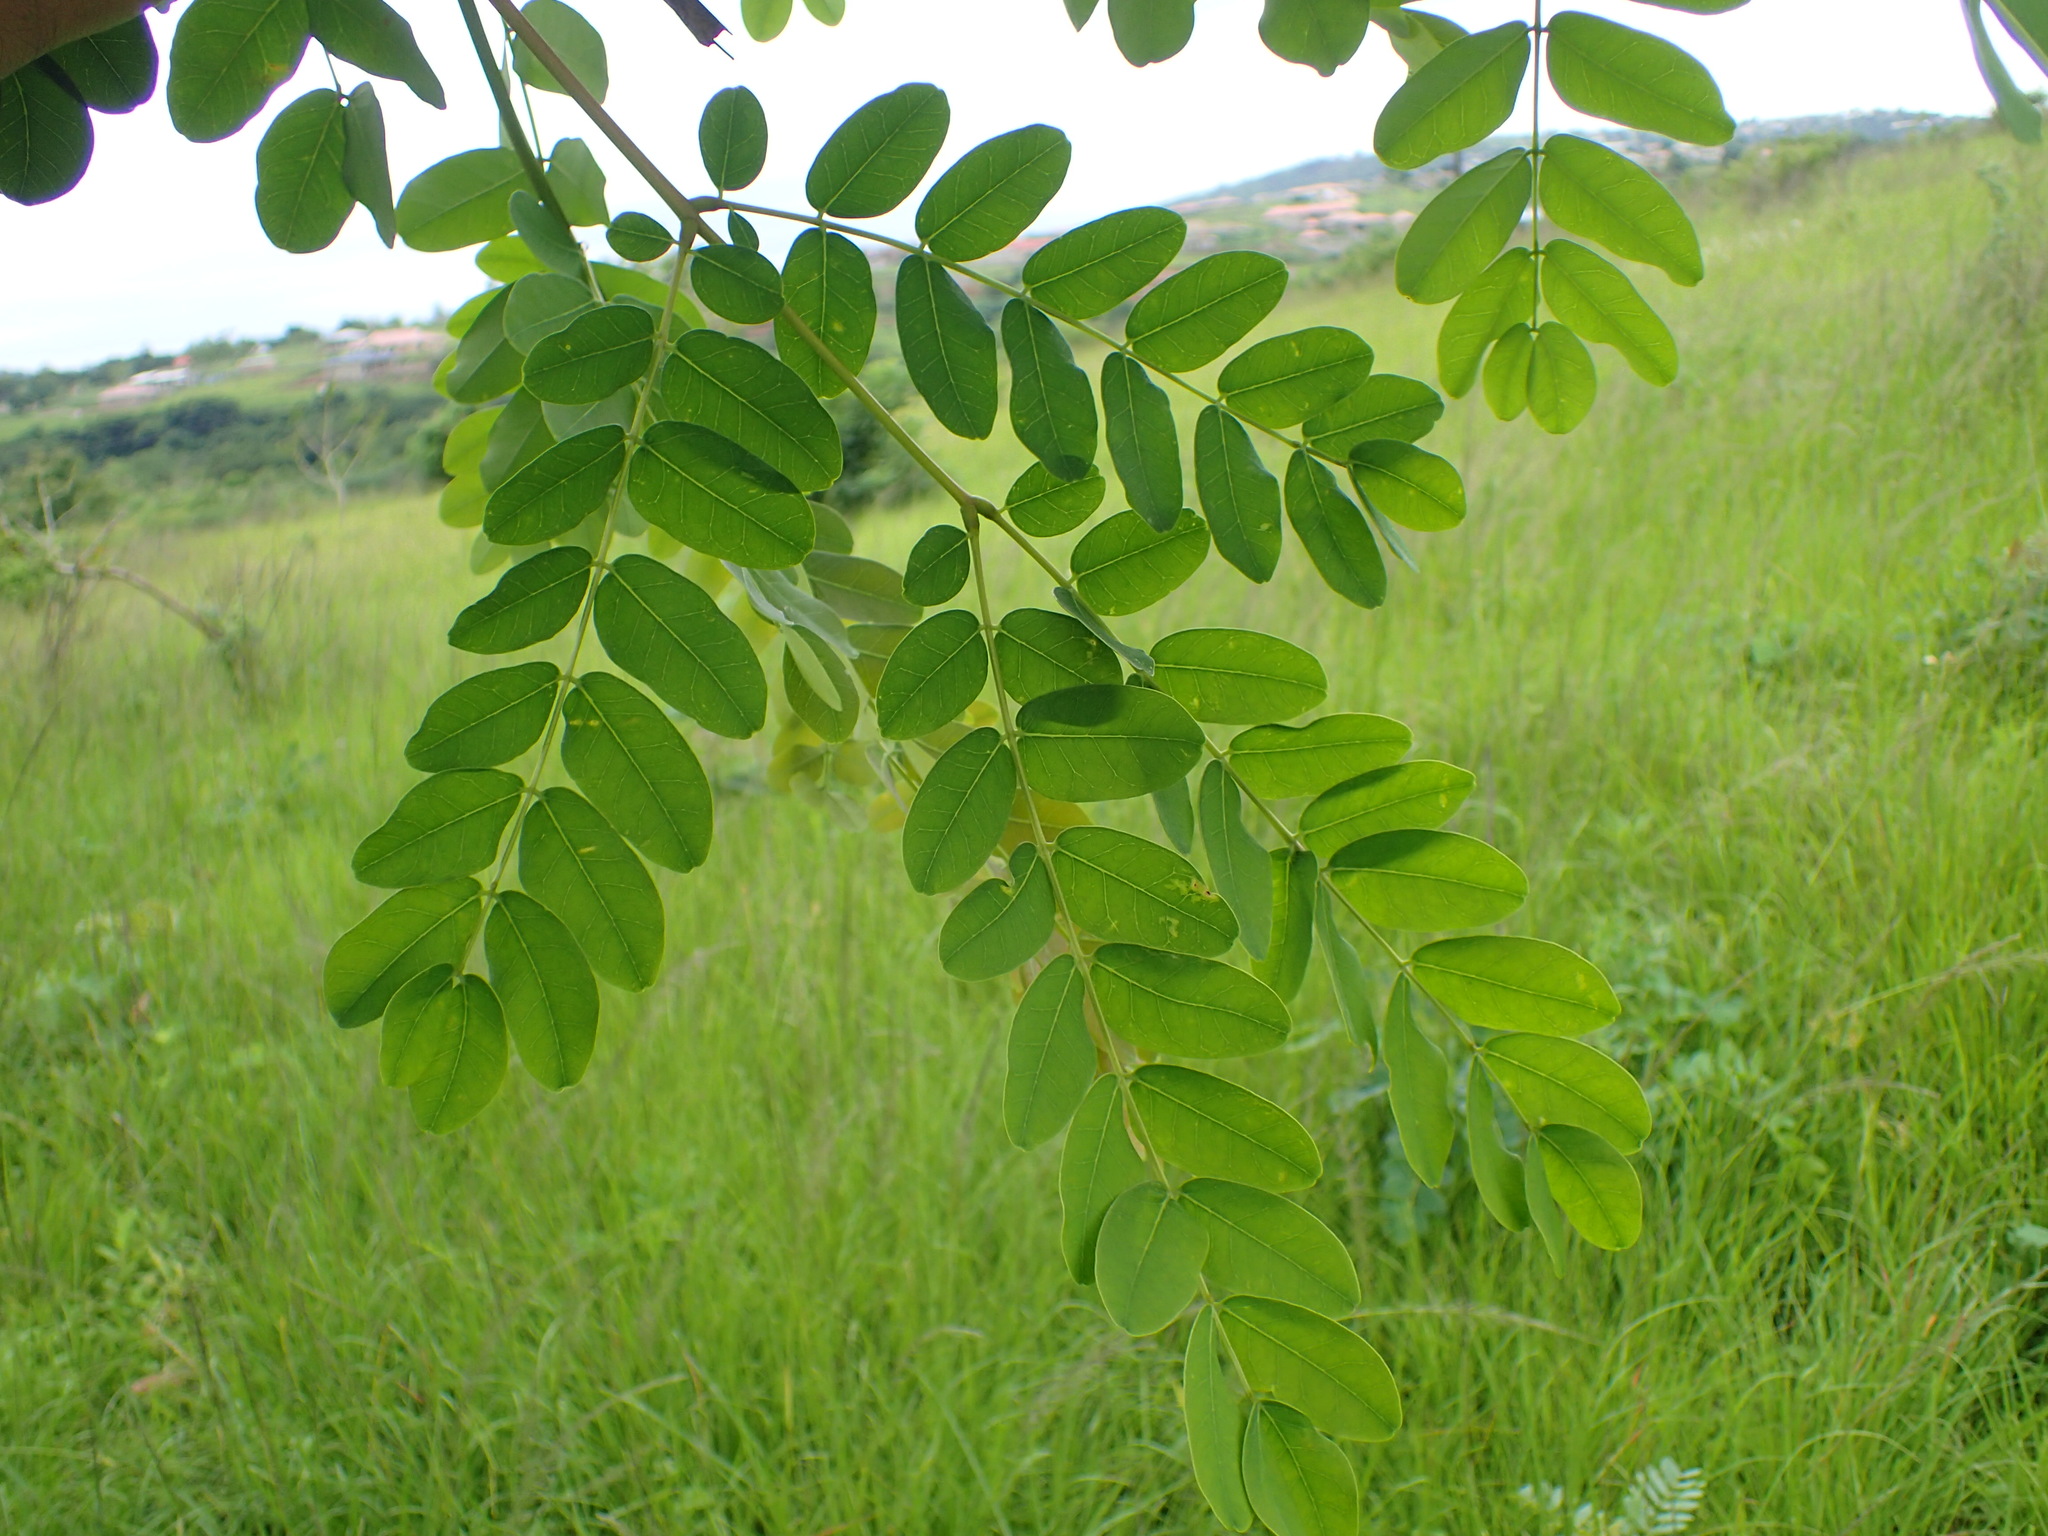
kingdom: Plantae
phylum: Tracheophyta
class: Magnoliopsida
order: Fabales
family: Fabaceae
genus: Albizia
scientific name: Albizia lebbeck
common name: Woman's tongue
